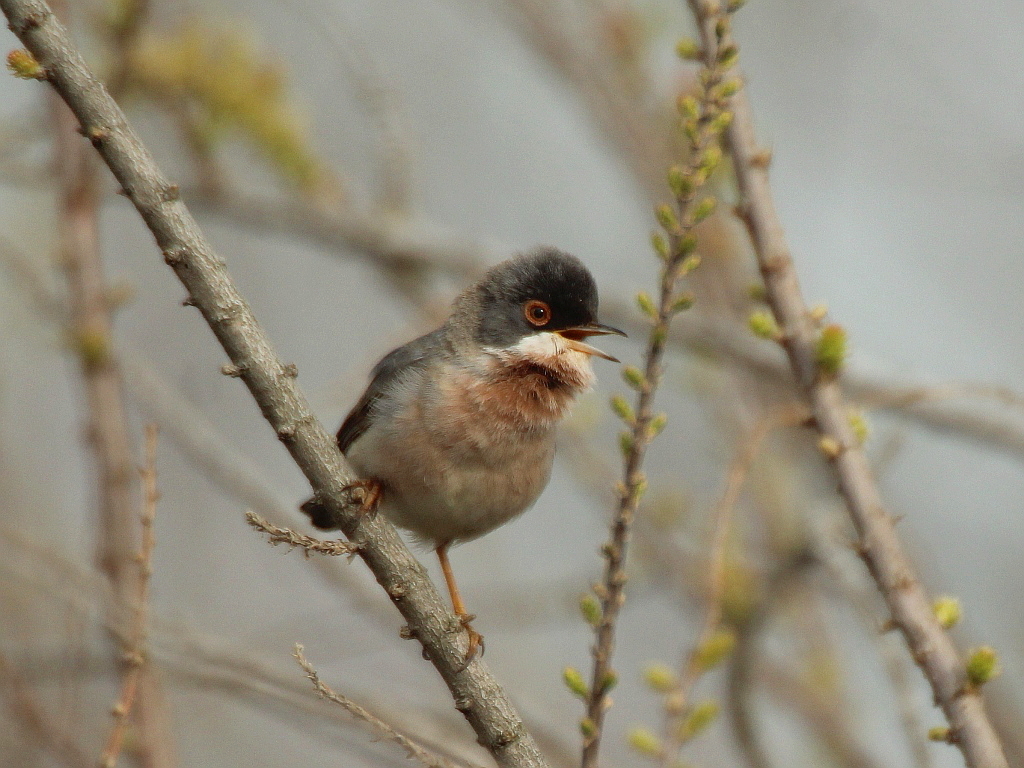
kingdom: Animalia
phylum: Chordata
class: Aves
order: Passeriformes
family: Sylviidae
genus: Sylvia
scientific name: Sylvia mystacea
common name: Menetries's warbler
